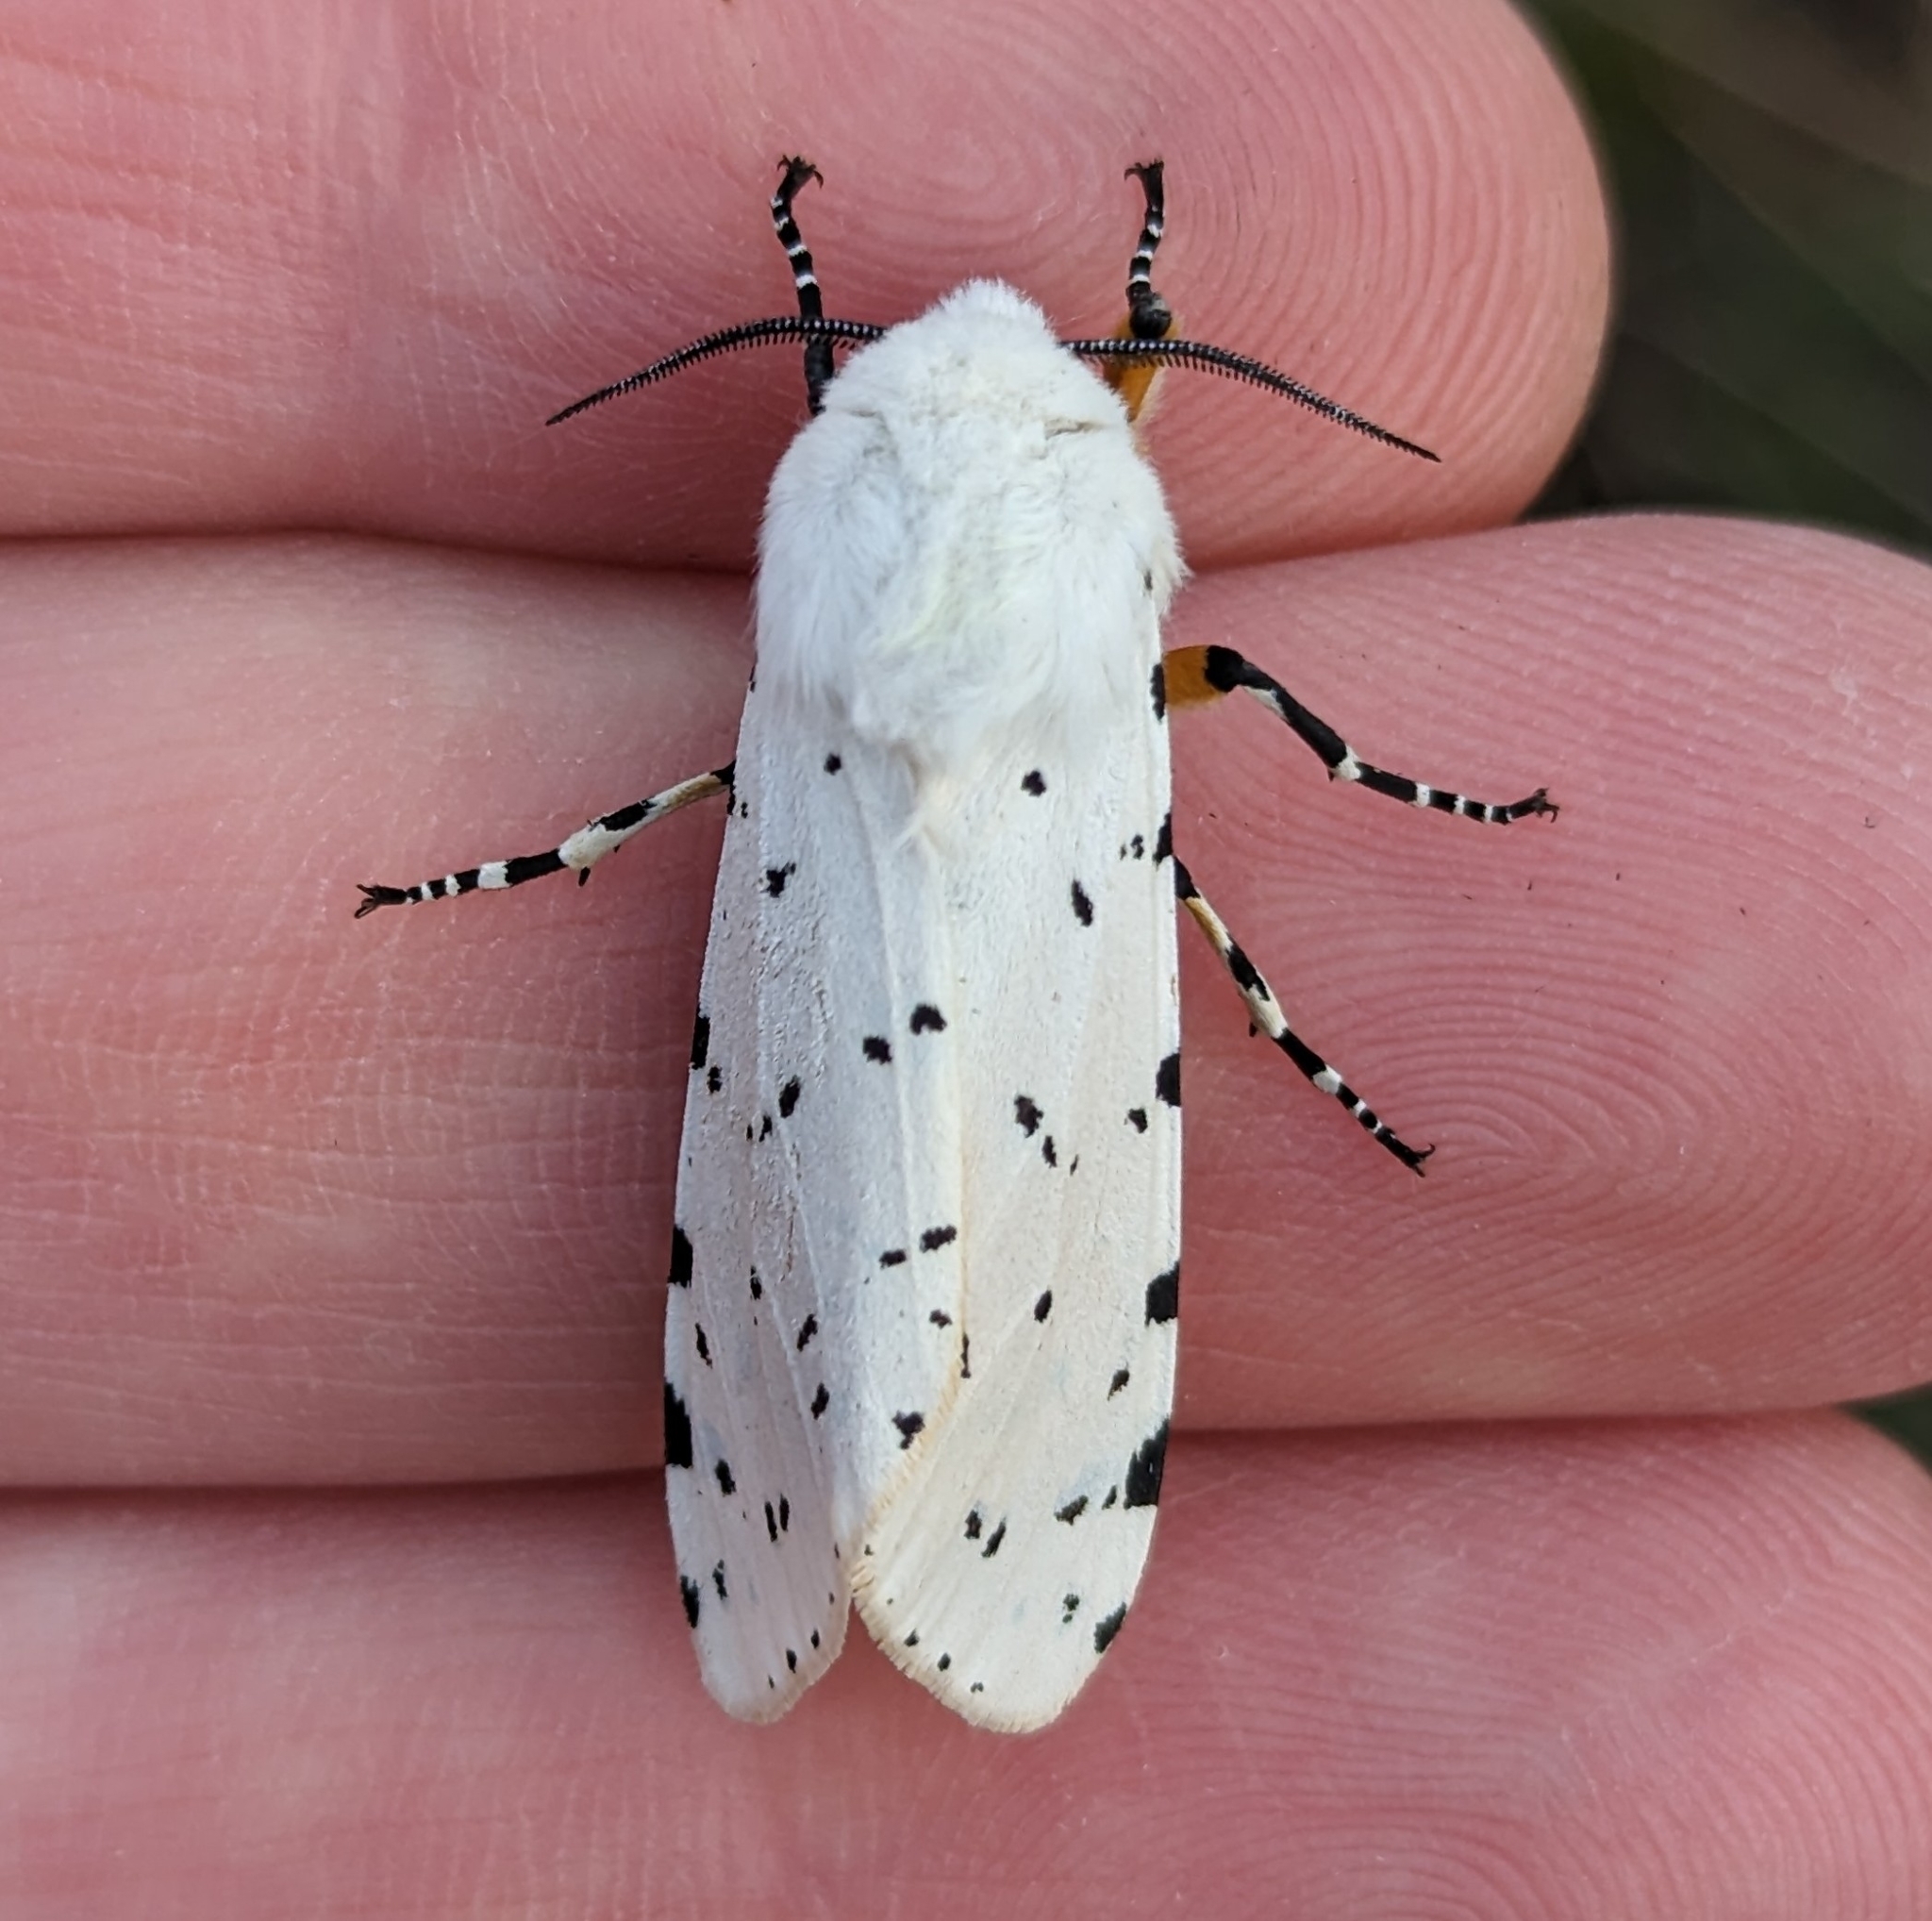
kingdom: Animalia
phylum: Arthropoda
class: Insecta
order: Lepidoptera
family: Erebidae
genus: Estigmene
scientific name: Estigmene acrea
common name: Salt marsh moth
